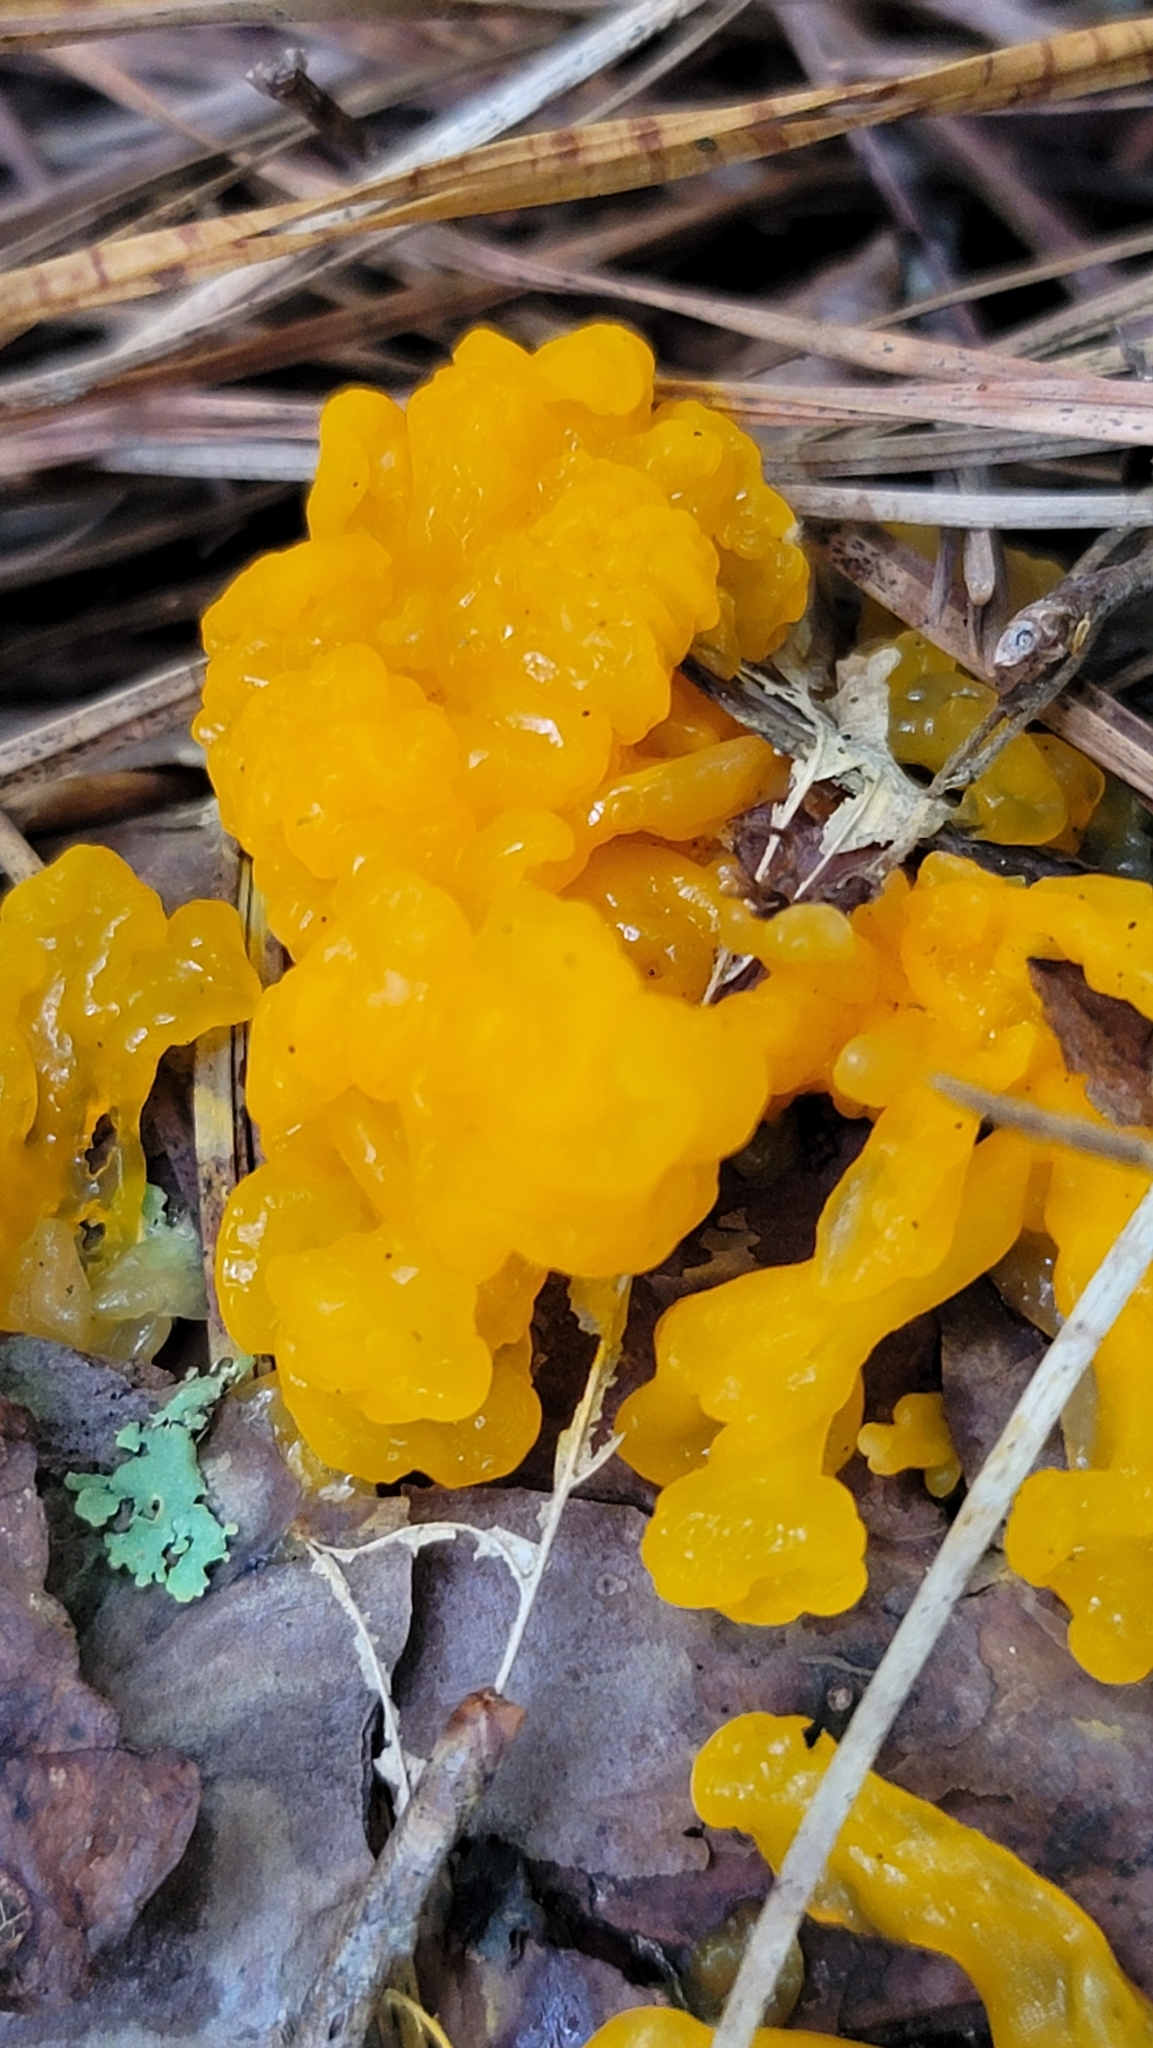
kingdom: Fungi
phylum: Basidiomycota
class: Tremellomycetes
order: Tremellales
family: Tremellaceae
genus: Tremella
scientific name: Tremella mesenterica
